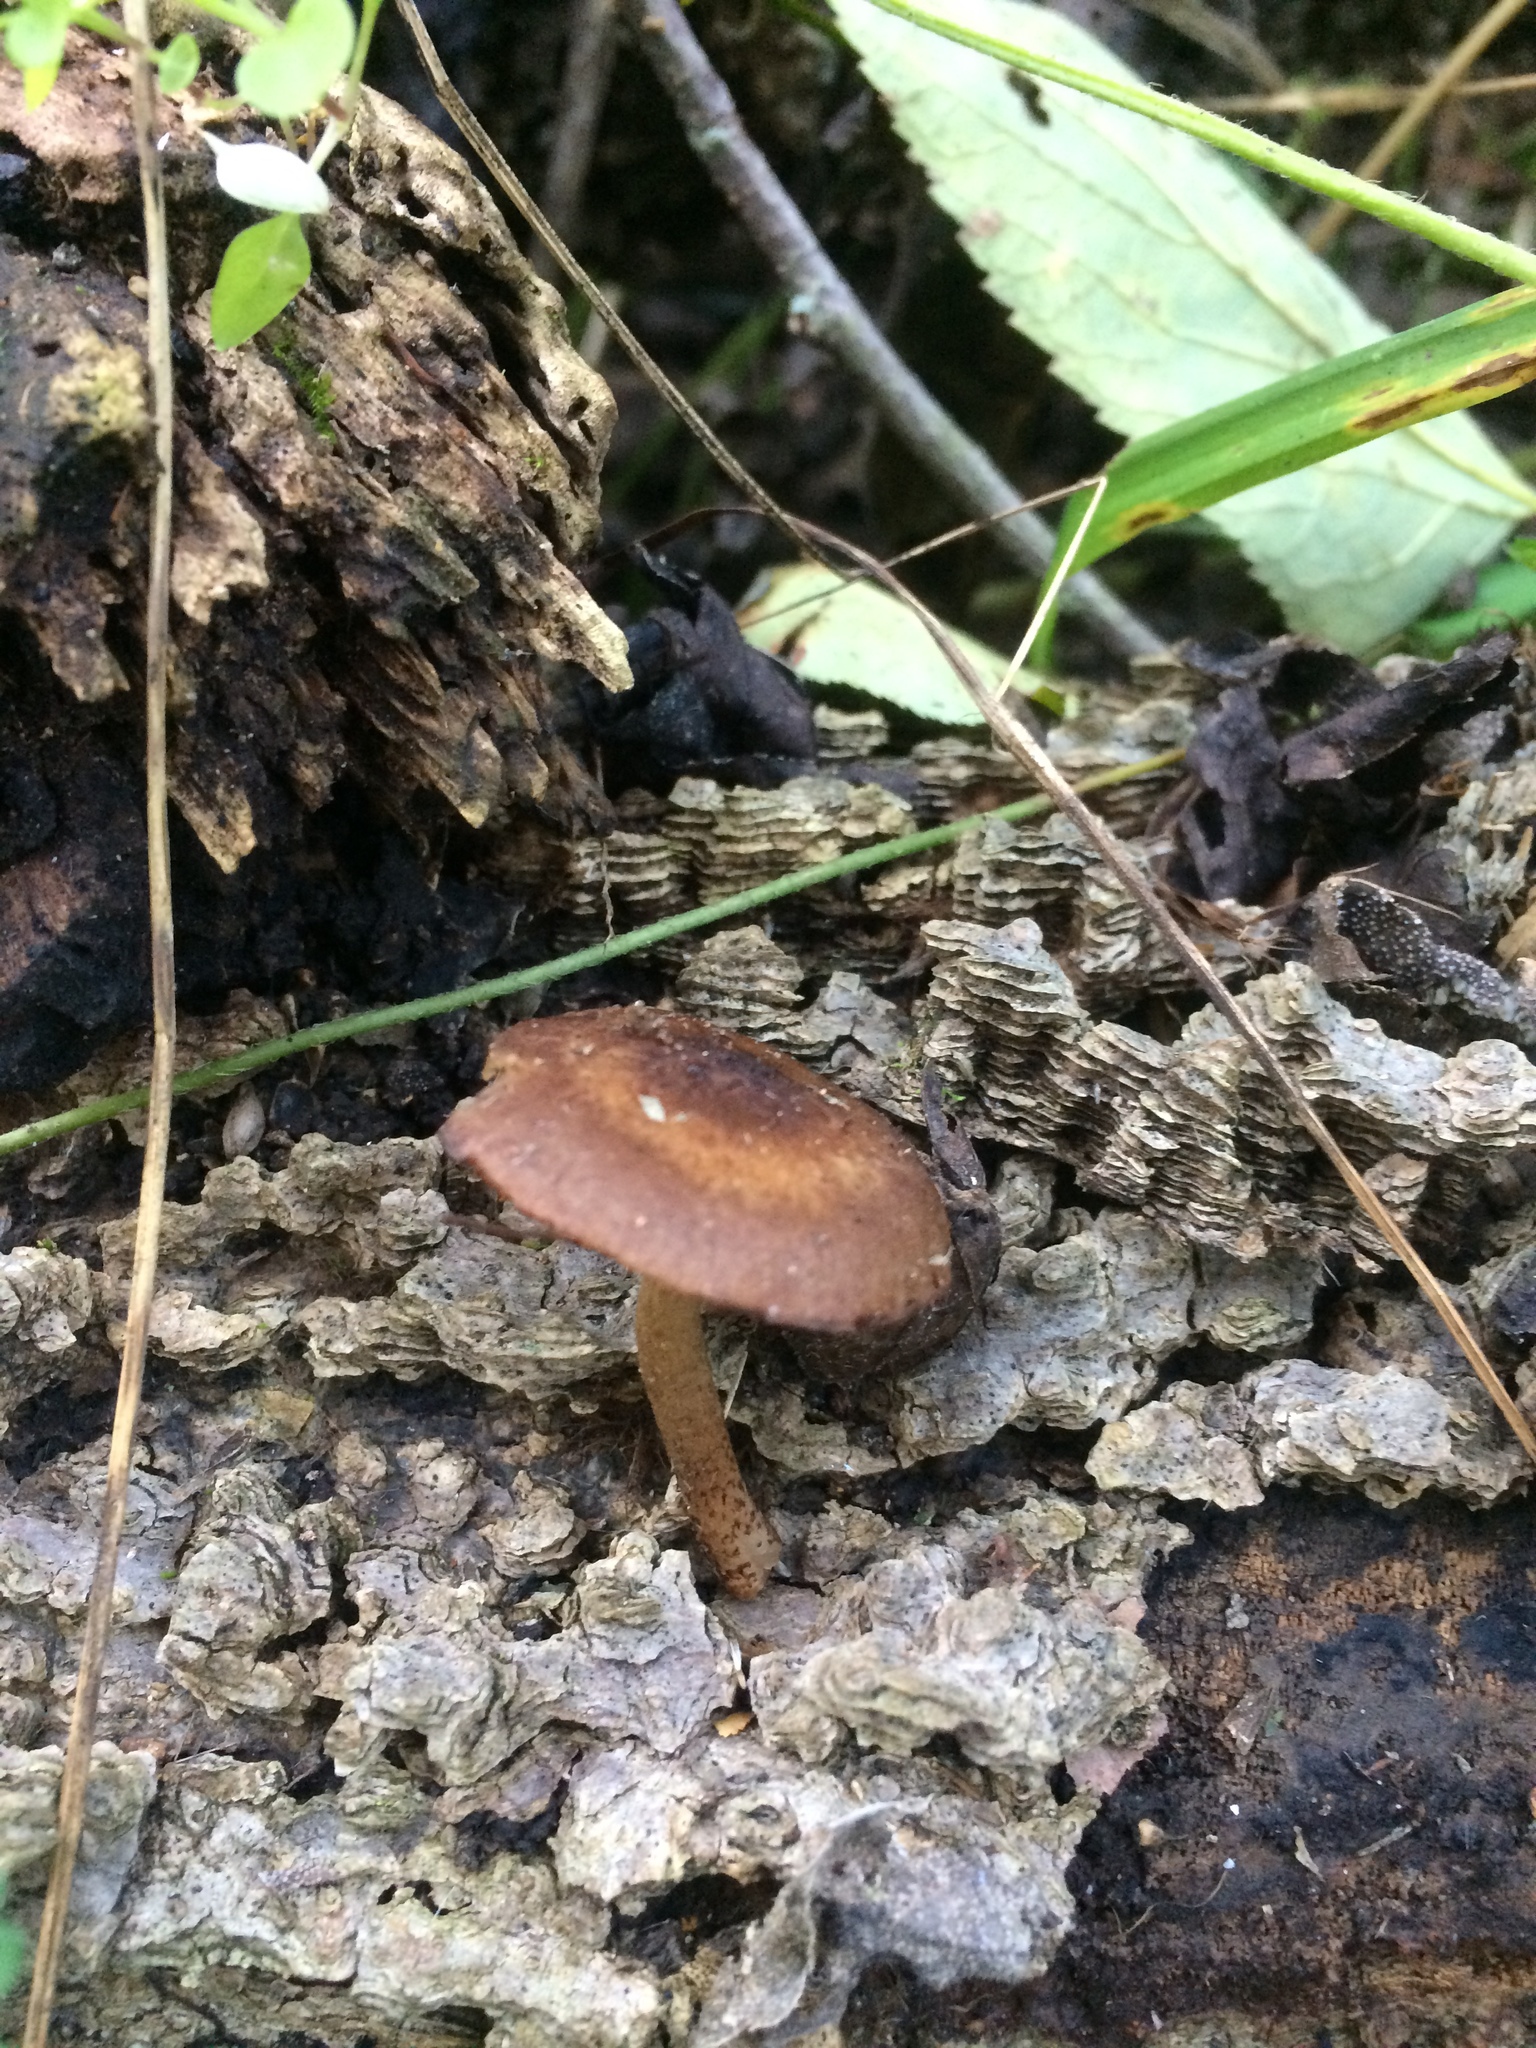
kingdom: Fungi
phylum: Basidiomycota
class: Agaricomycetes
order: Agaricales
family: Psathyrellaceae
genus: Cystoagaricus
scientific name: Cystoagaricus hirtosquamulosus
